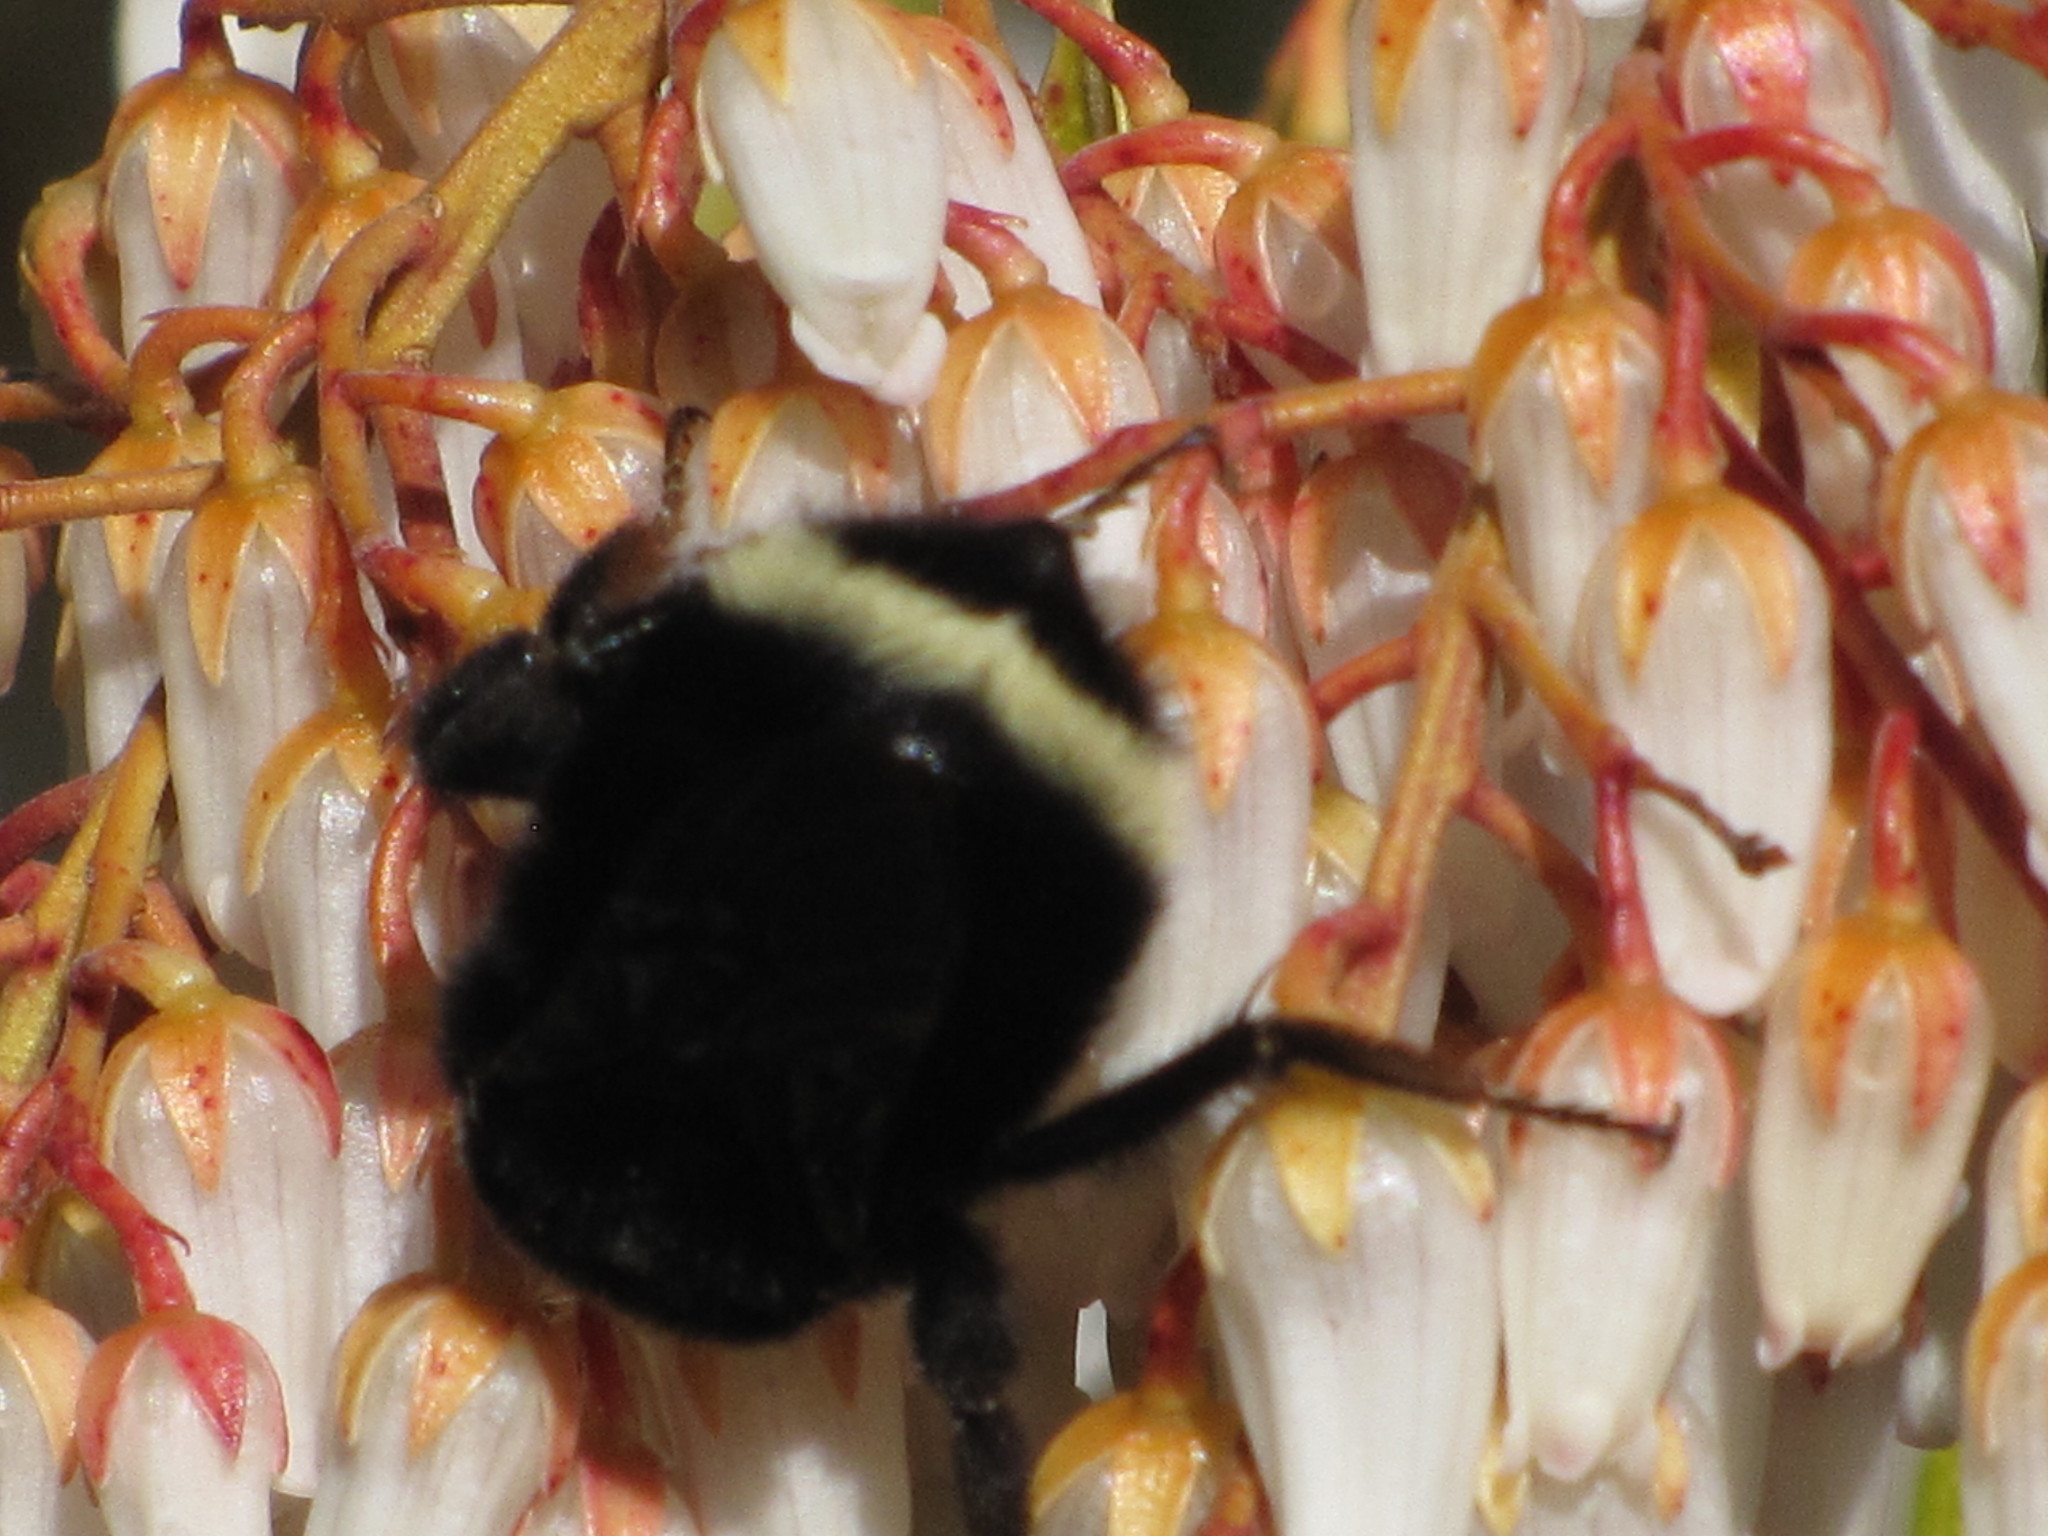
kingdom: Animalia
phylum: Arthropoda
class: Insecta
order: Hymenoptera
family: Apidae
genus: Bombus
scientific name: Bombus vosnesenskii
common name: Vosnesensky bumble bee
